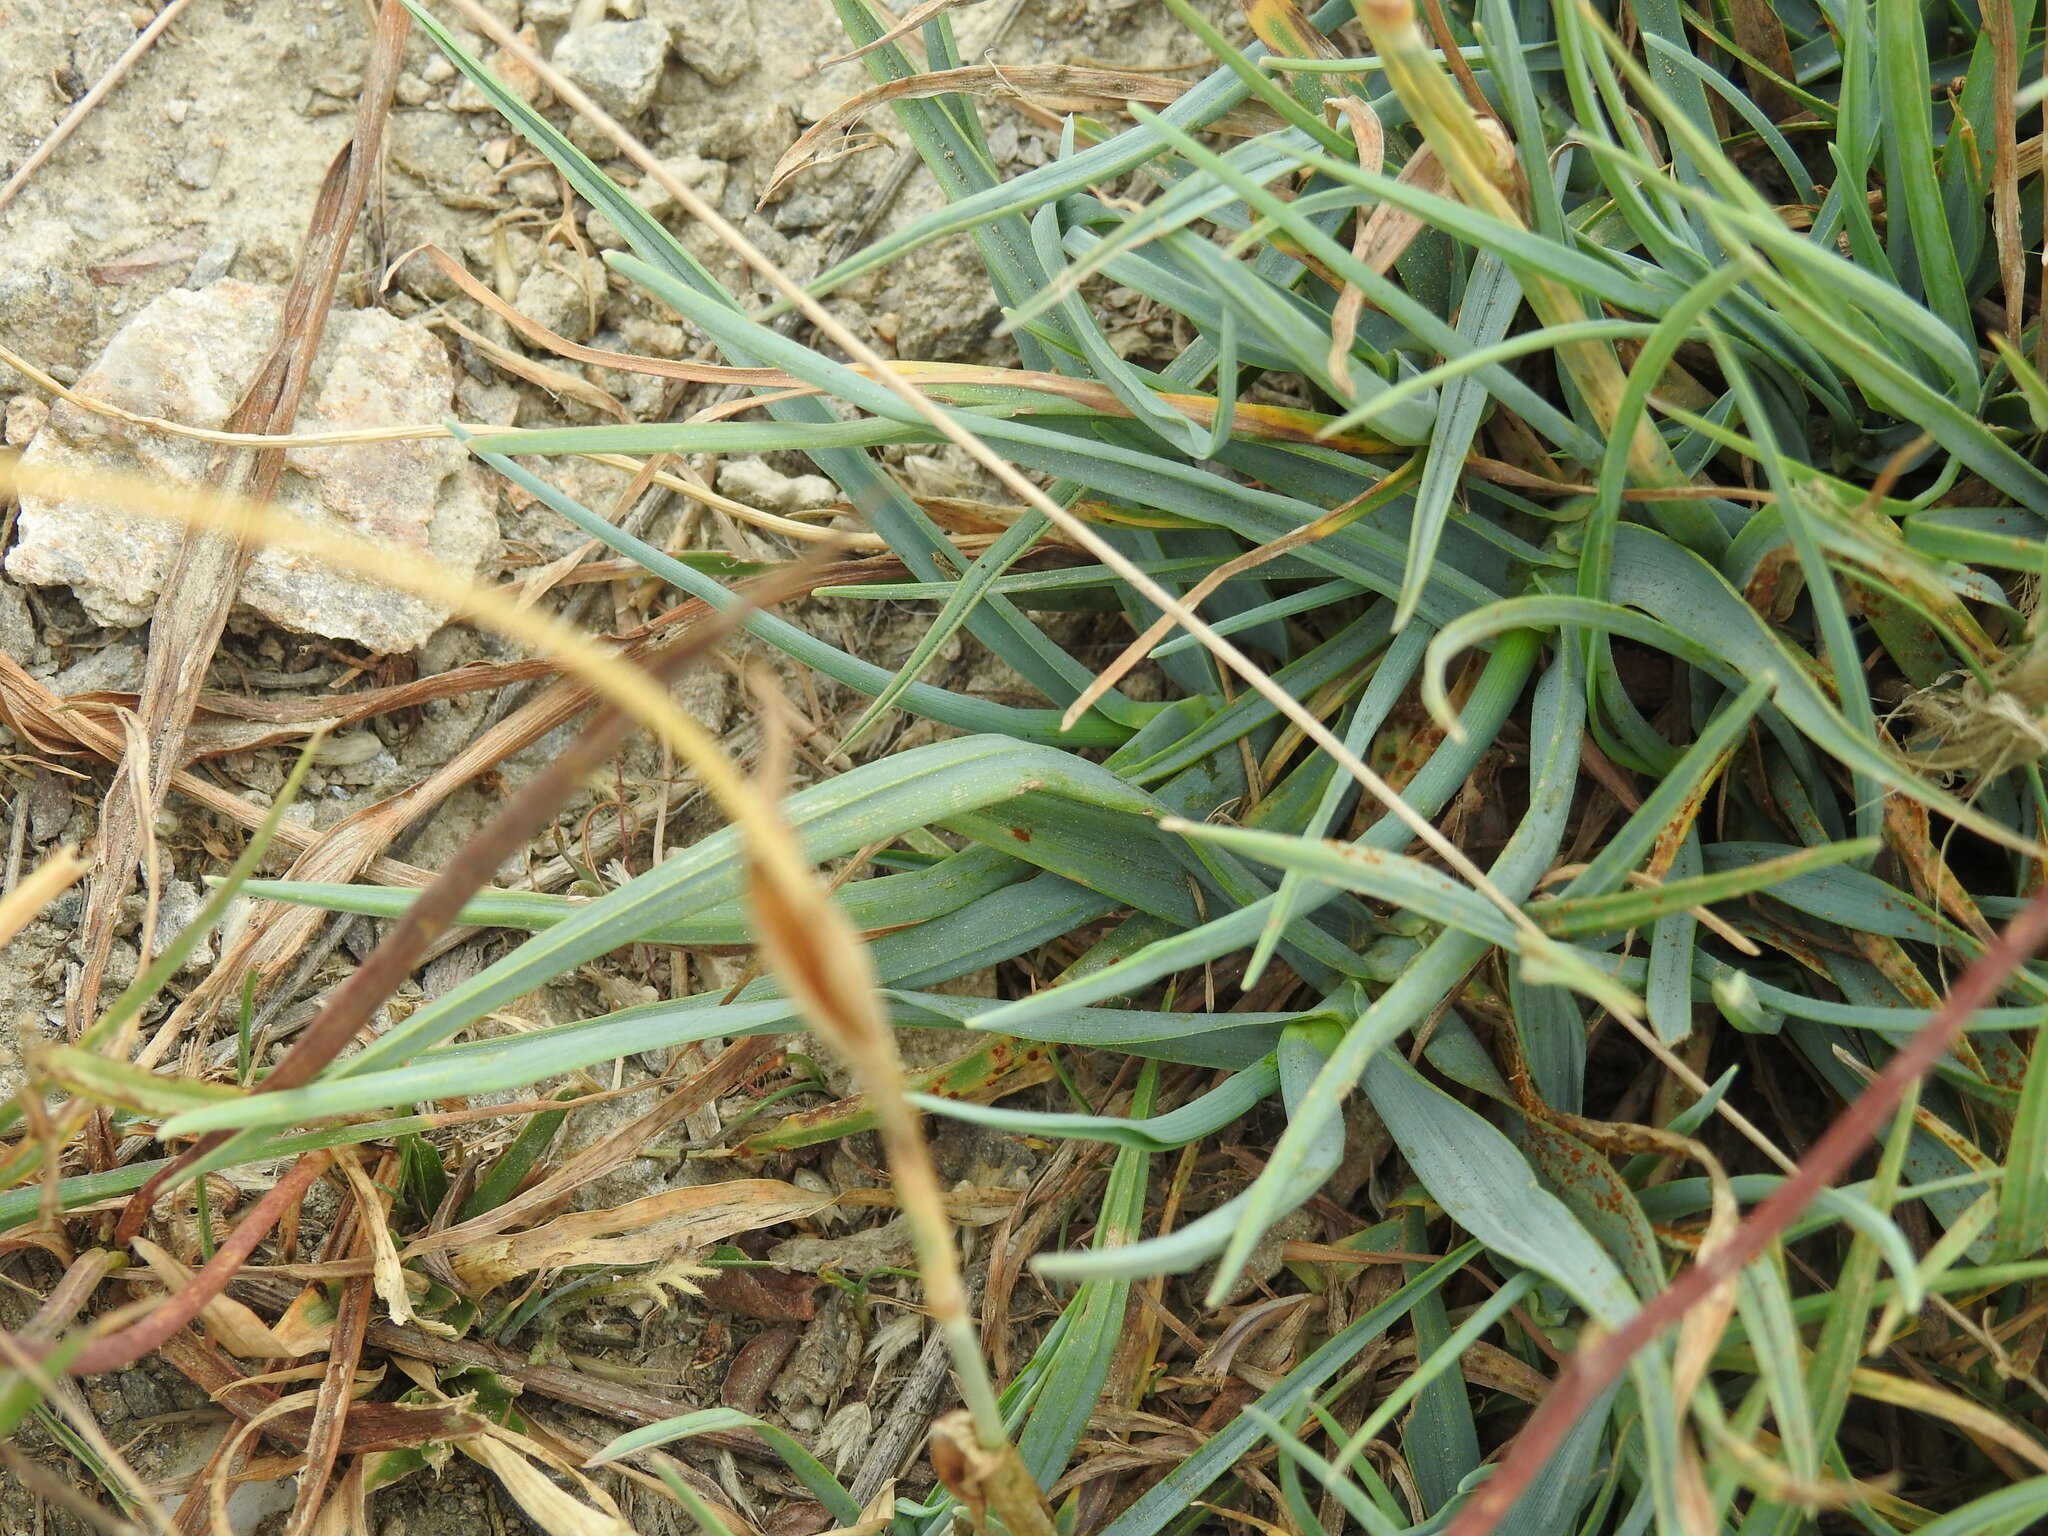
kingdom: Plantae
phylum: Tracheophyta
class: Liliopsida
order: Poales
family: Poaceae
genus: Phleum
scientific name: Phleum alpinum
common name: Alpine cat's-tail
